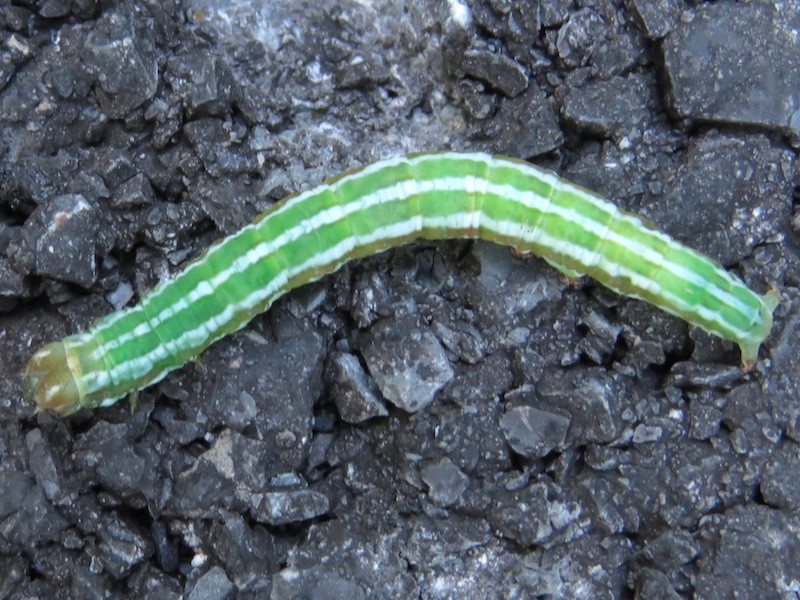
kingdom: Animalia
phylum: Arthropoda
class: Insecta
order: Lepidoptera
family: Erebidae
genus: Zale
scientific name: Zale helata
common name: Brown-spotted zale moth
